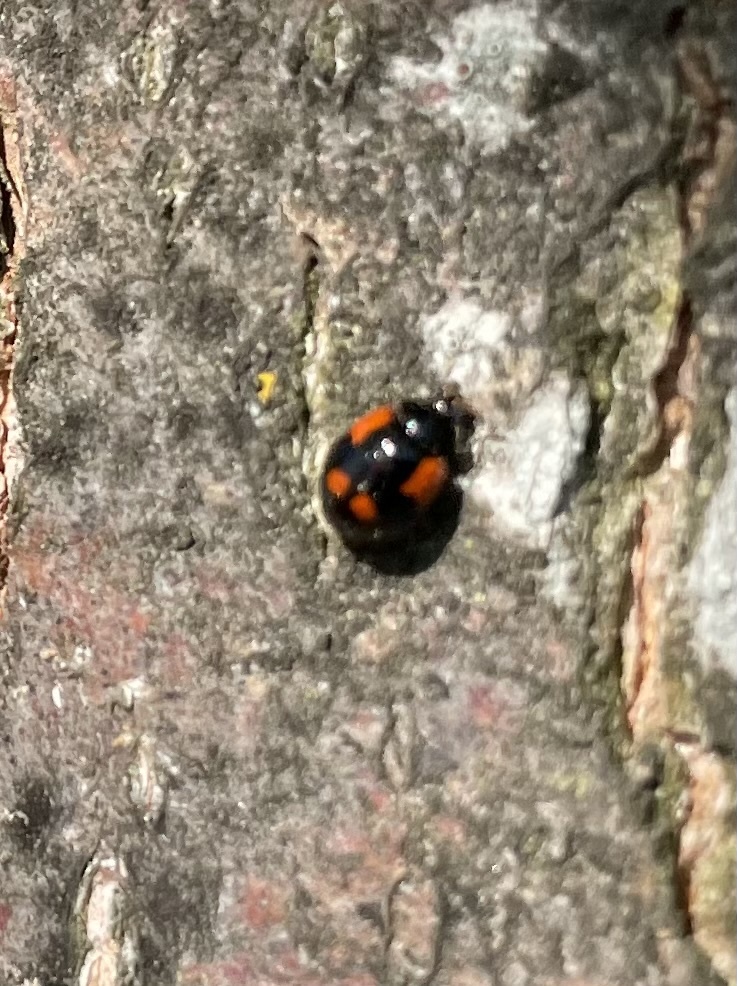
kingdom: Animalia
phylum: Arthropoda
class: Insecta
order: Coleoptera
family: Coccinellidae
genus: Adalia
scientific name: Adalia bipunctata
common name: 2-spot ladybird
